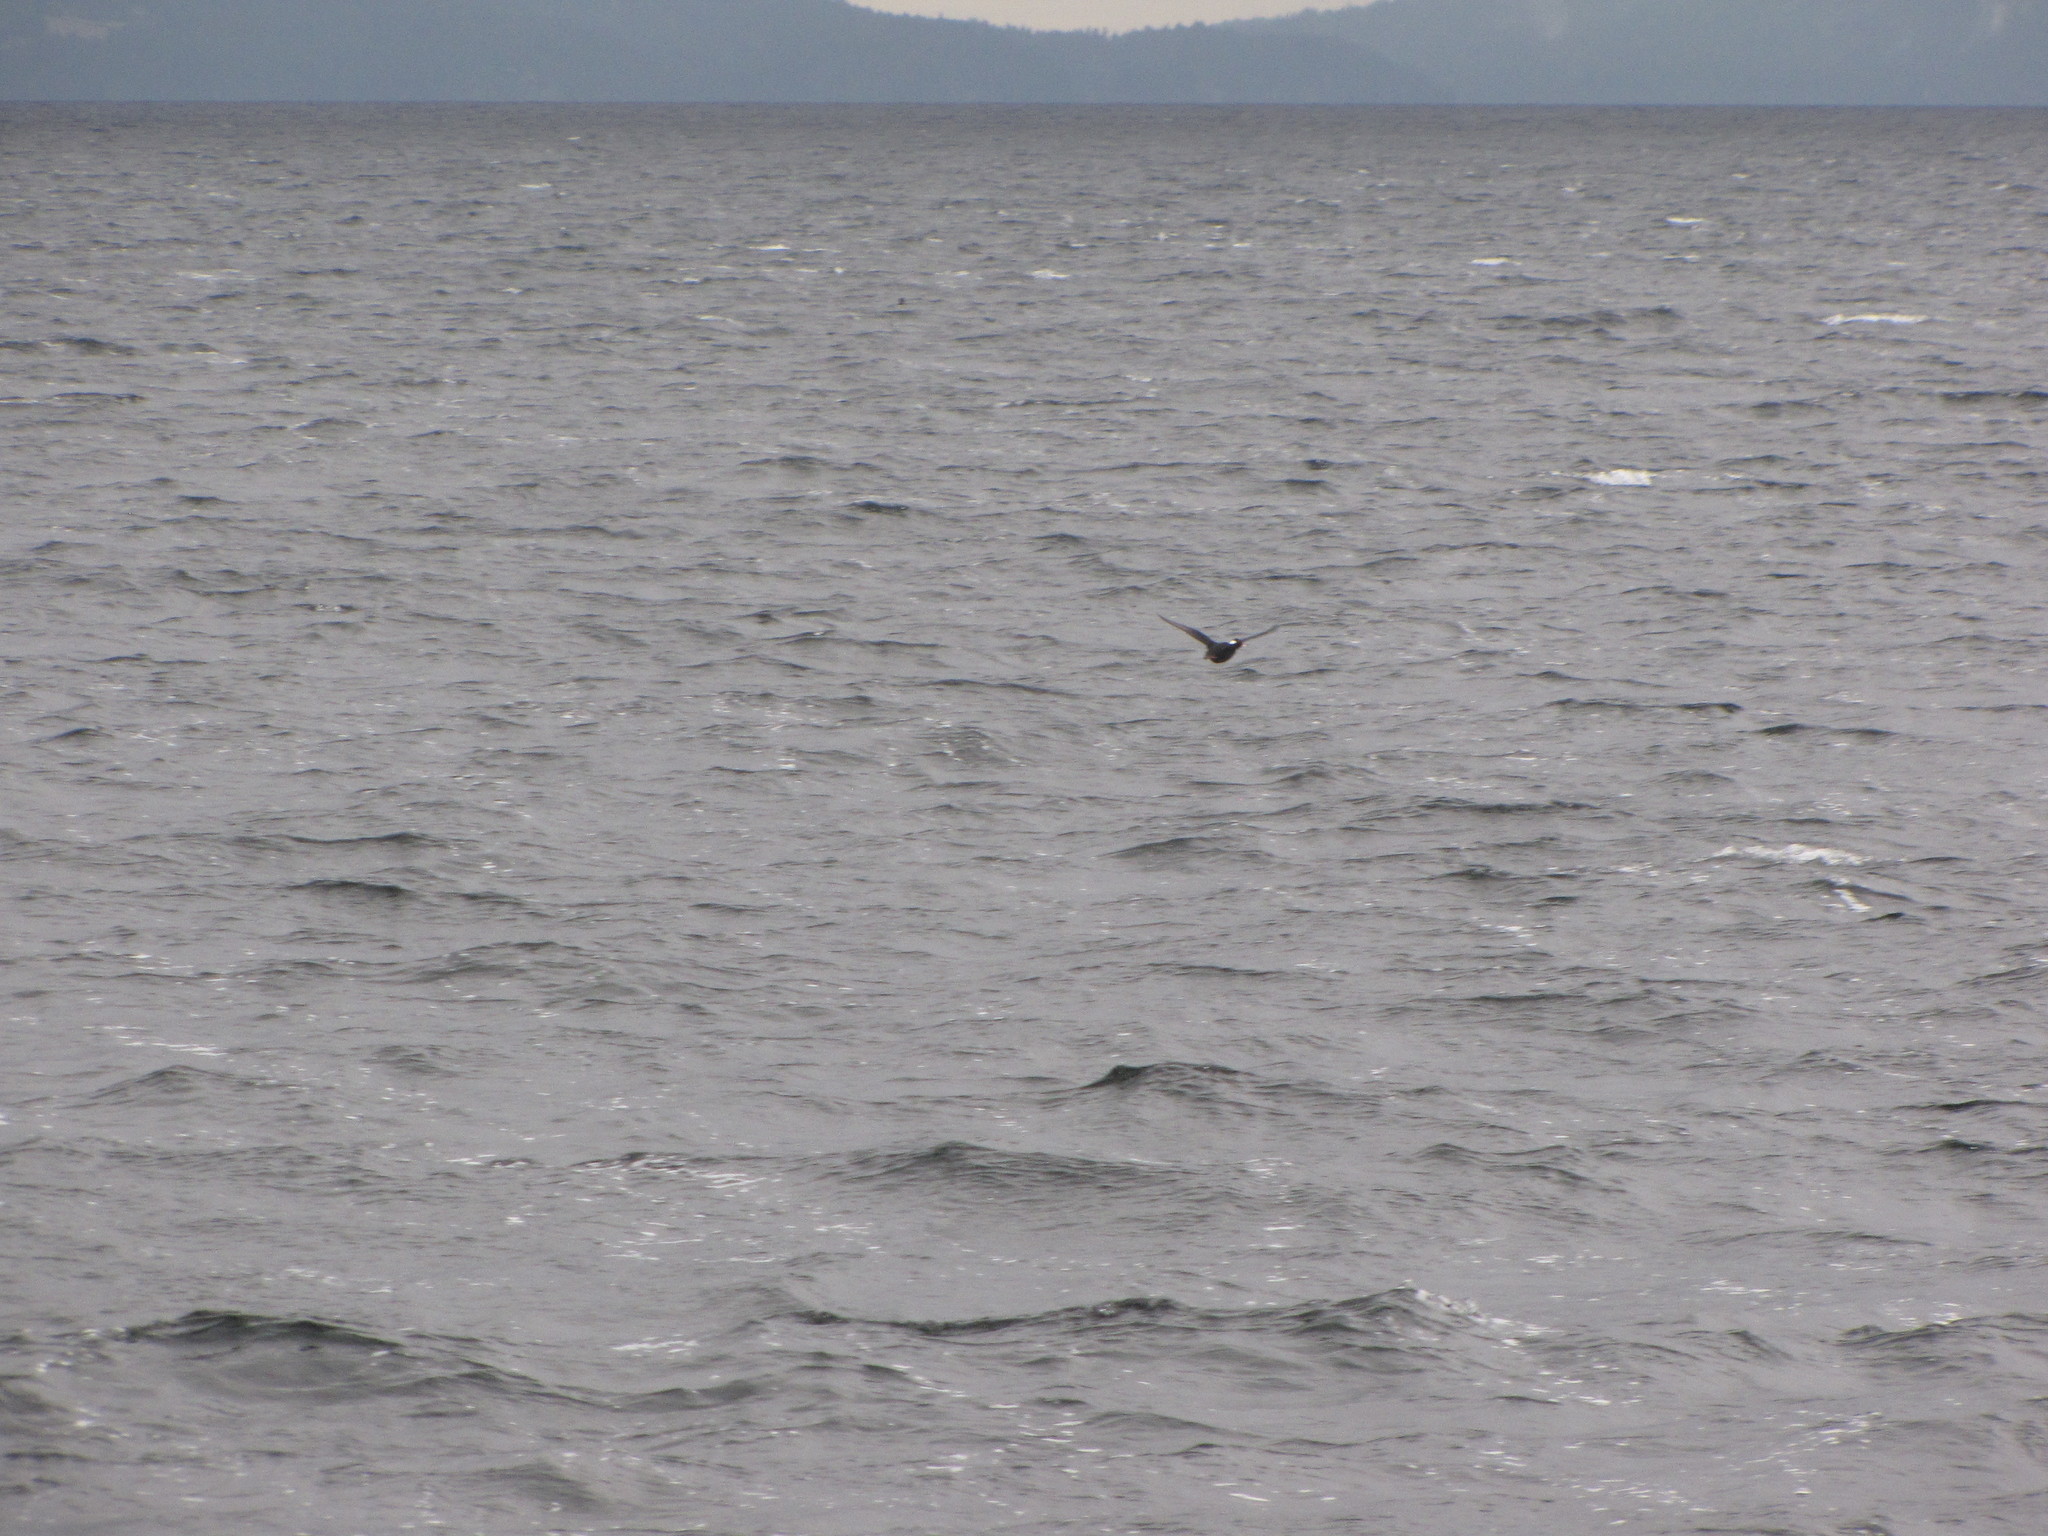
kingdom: Animalia
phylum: Chordata
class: Aves
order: Anseriformes
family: Anatidae
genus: Melanitta
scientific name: Melanitta perspicillata
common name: Surf scoter
